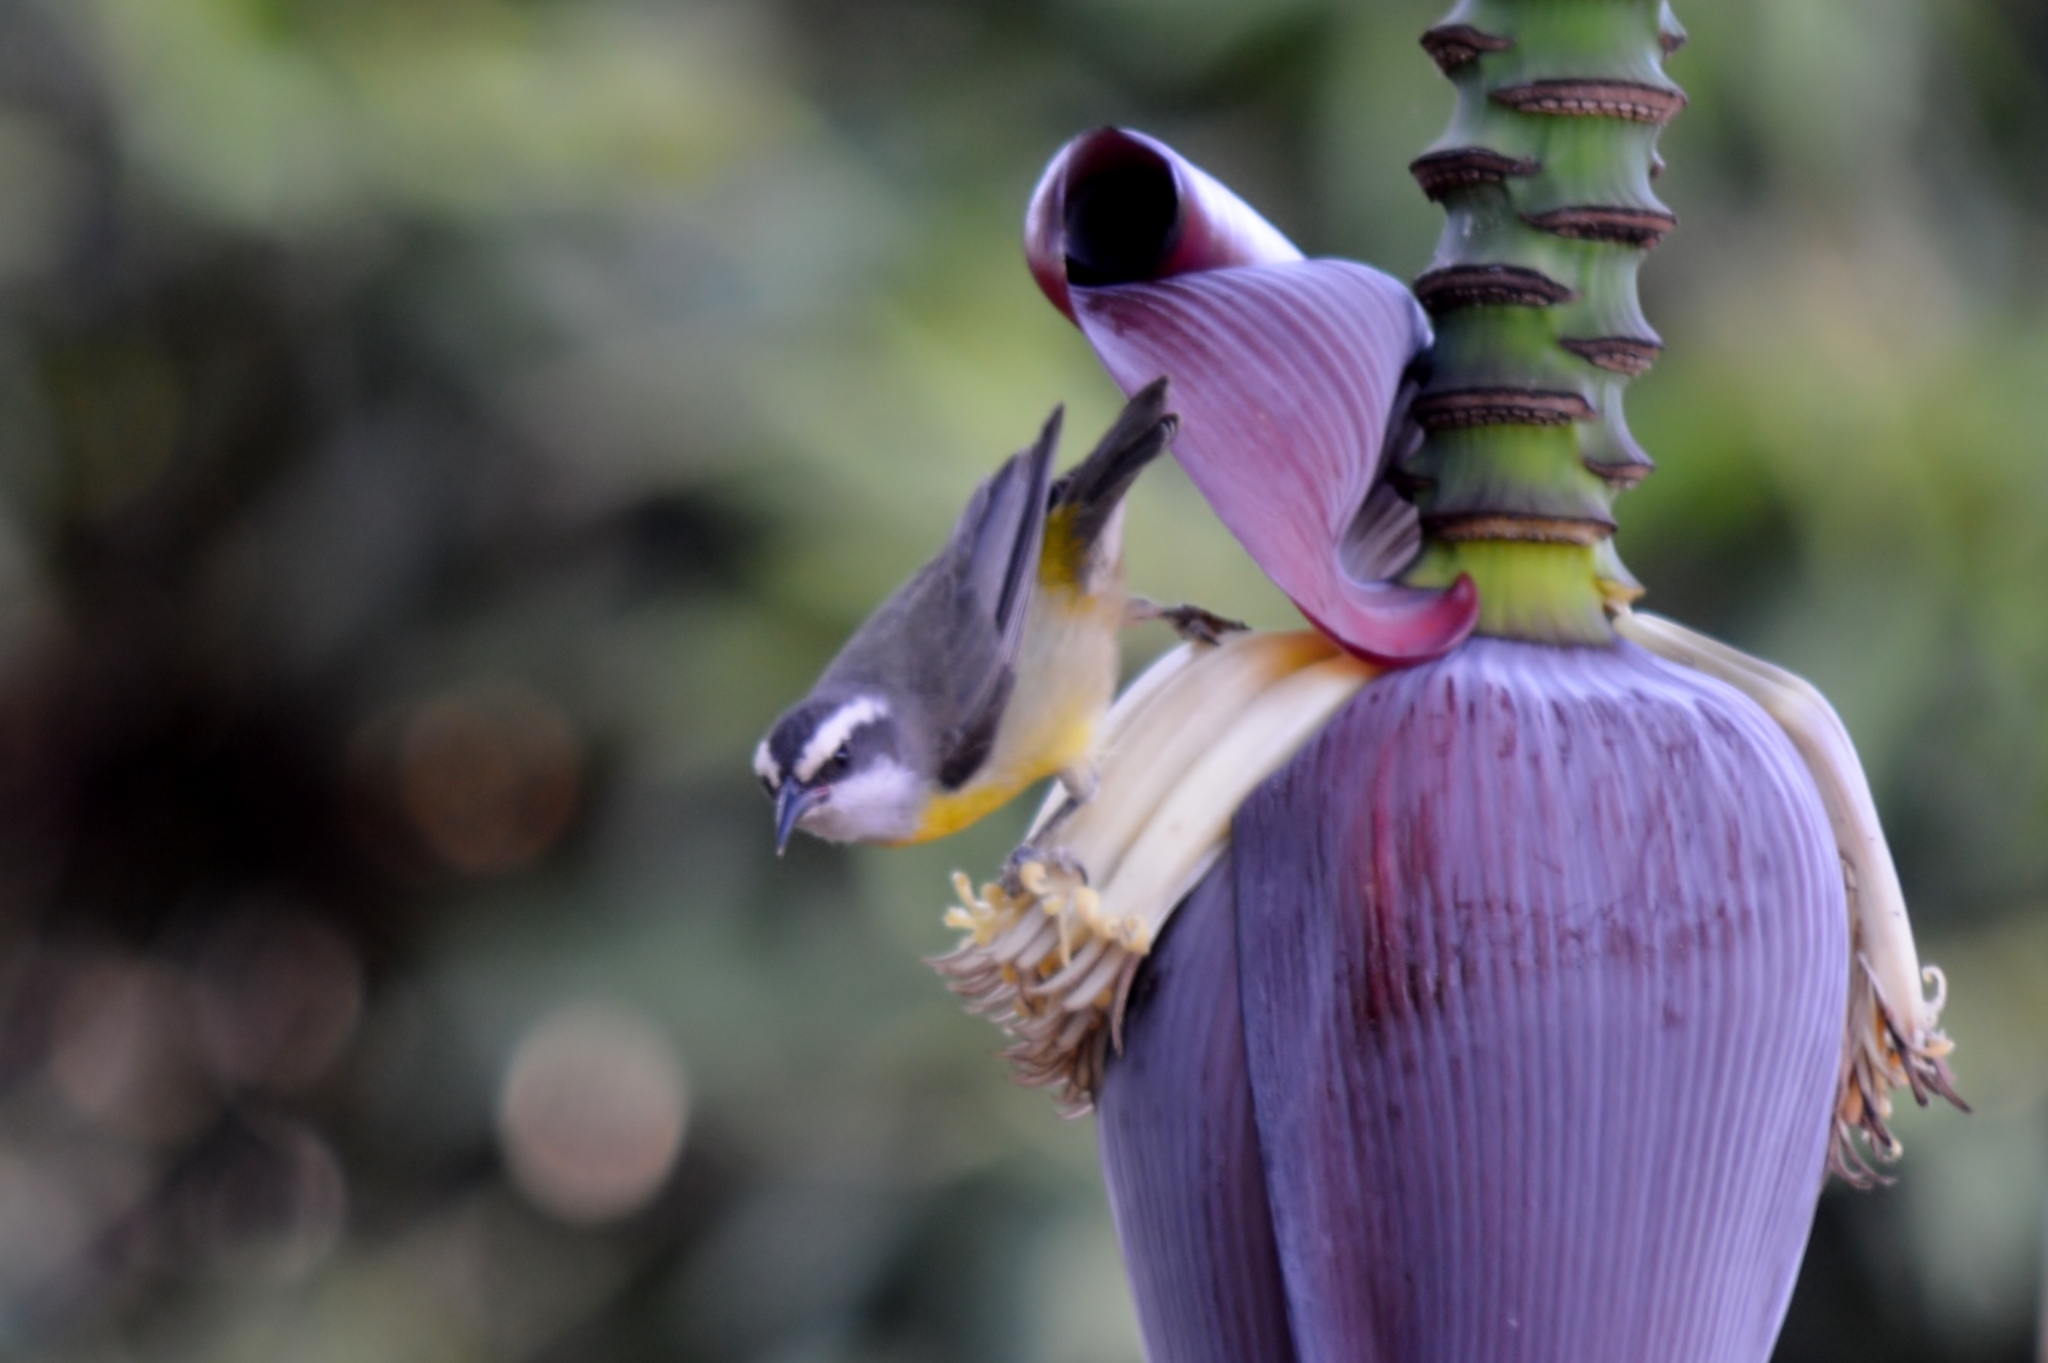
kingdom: Animalia
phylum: Chordata
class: Aves
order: Passeriformes
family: Thraupidae
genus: Coereba
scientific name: Coereba flaveola
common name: Bananaquit
